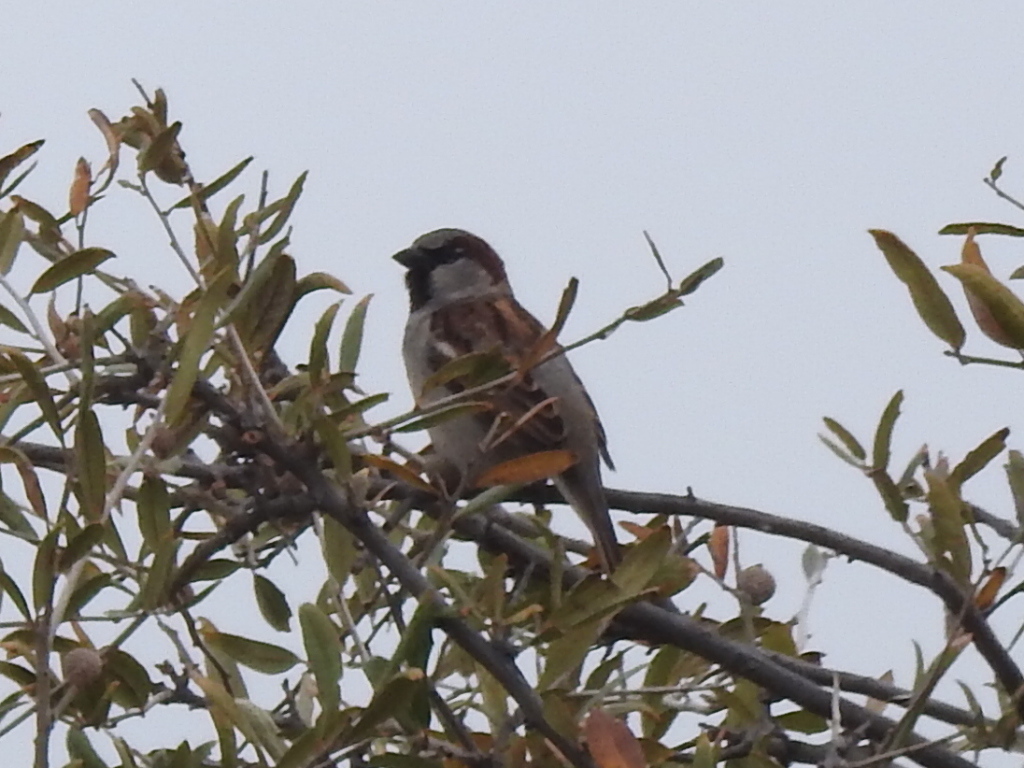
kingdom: Animalia
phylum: Chordata
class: Aves
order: Passeriformes
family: Passeridae
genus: Passer
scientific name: Passer domesticus
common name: House sparrow
